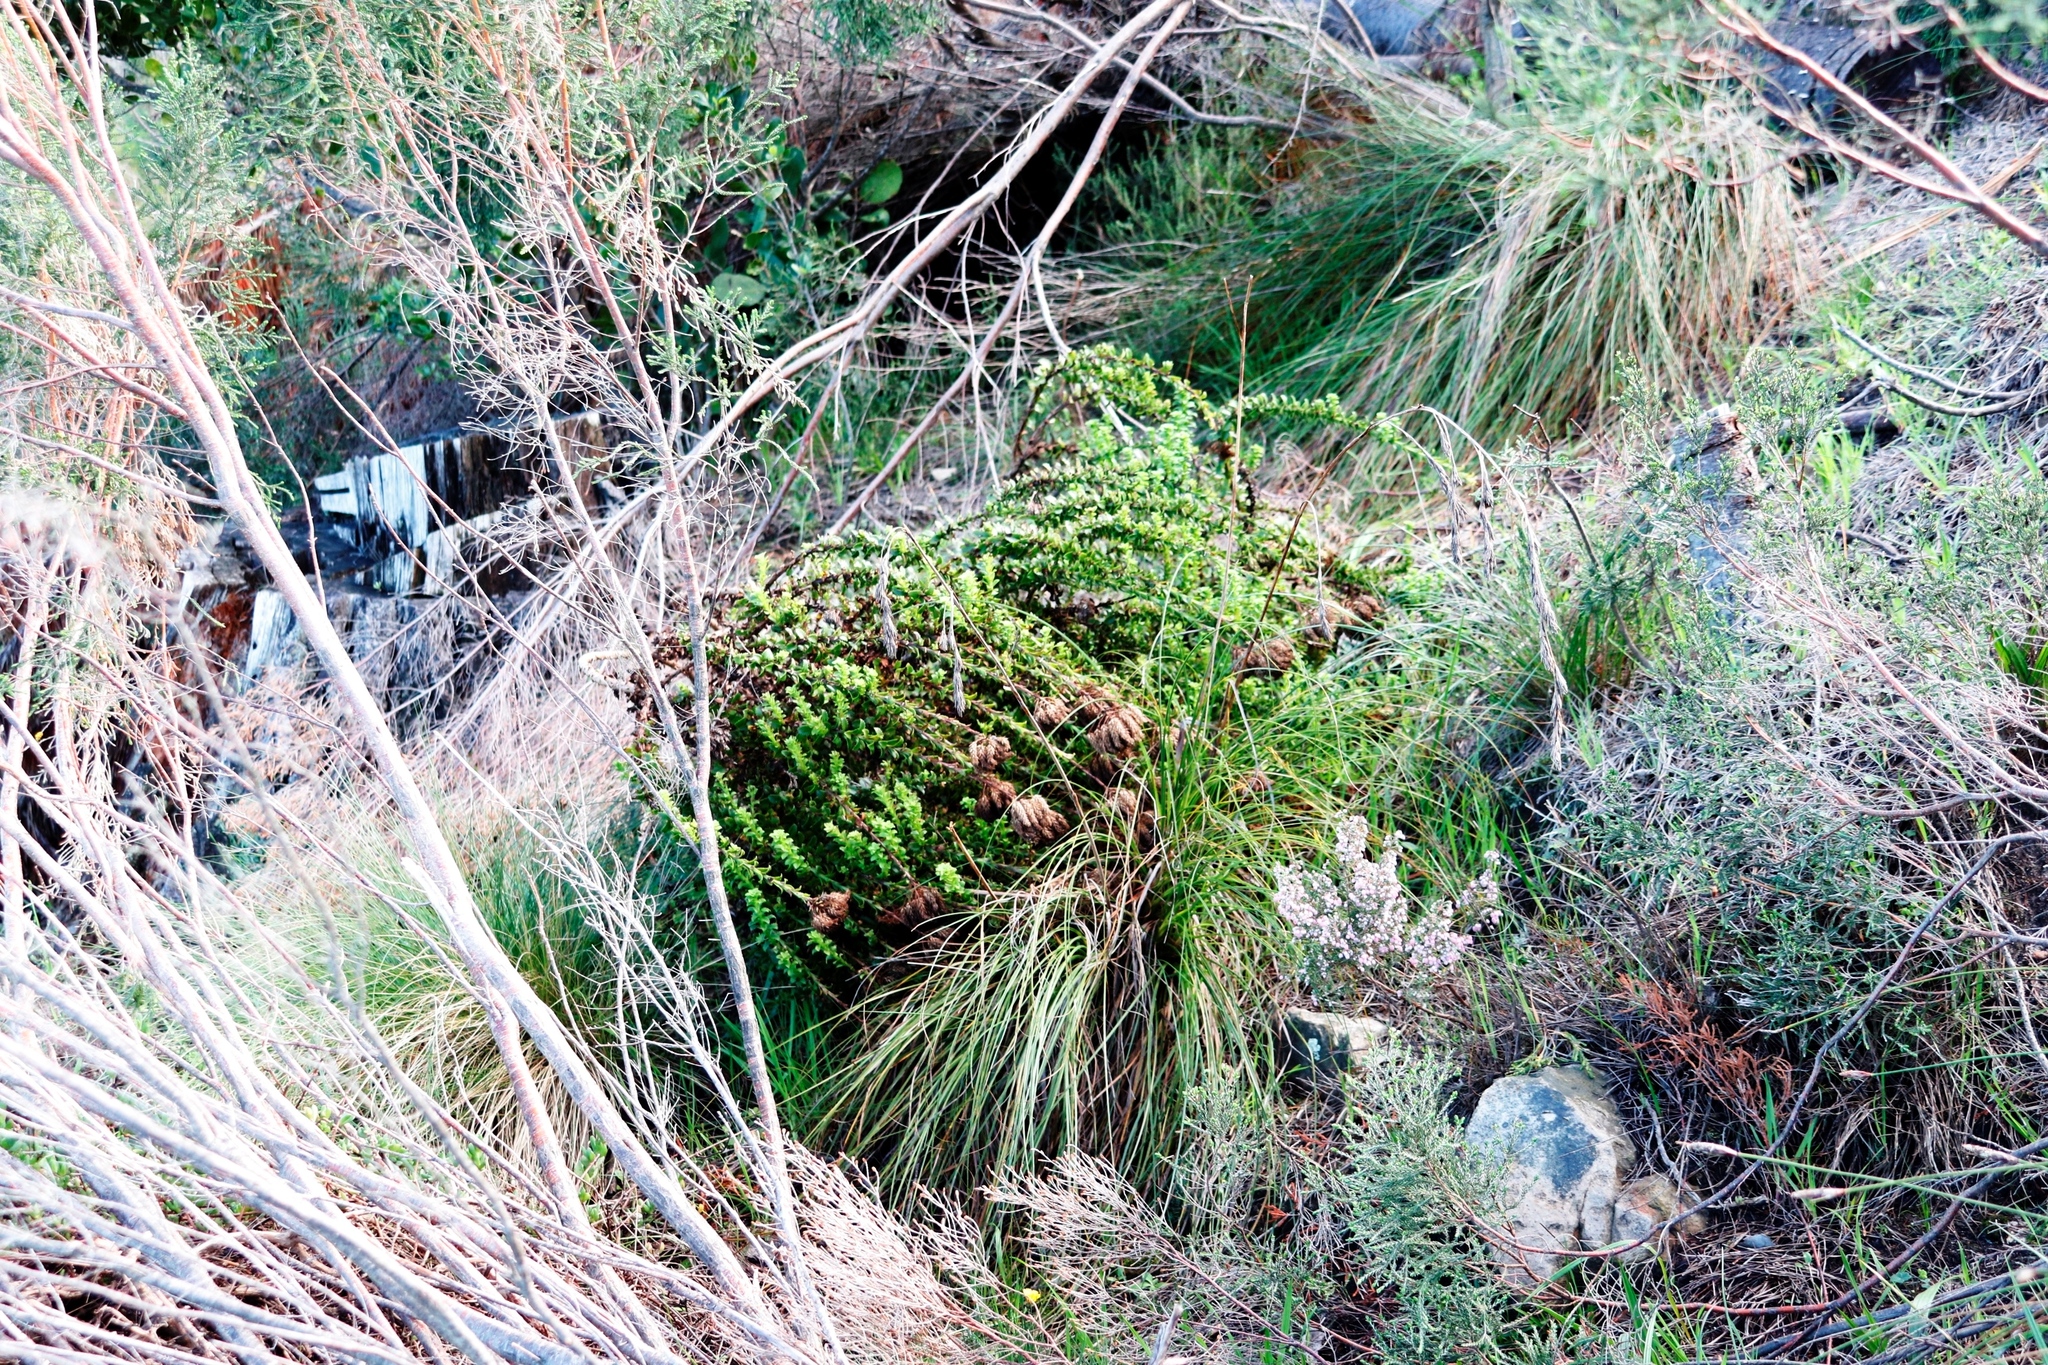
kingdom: Plantae
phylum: Tracheophyta
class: Magnoliopsida
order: Lamiales
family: Scrophulariaceae
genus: Pseudoselago
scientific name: Pseudoselago serrata
